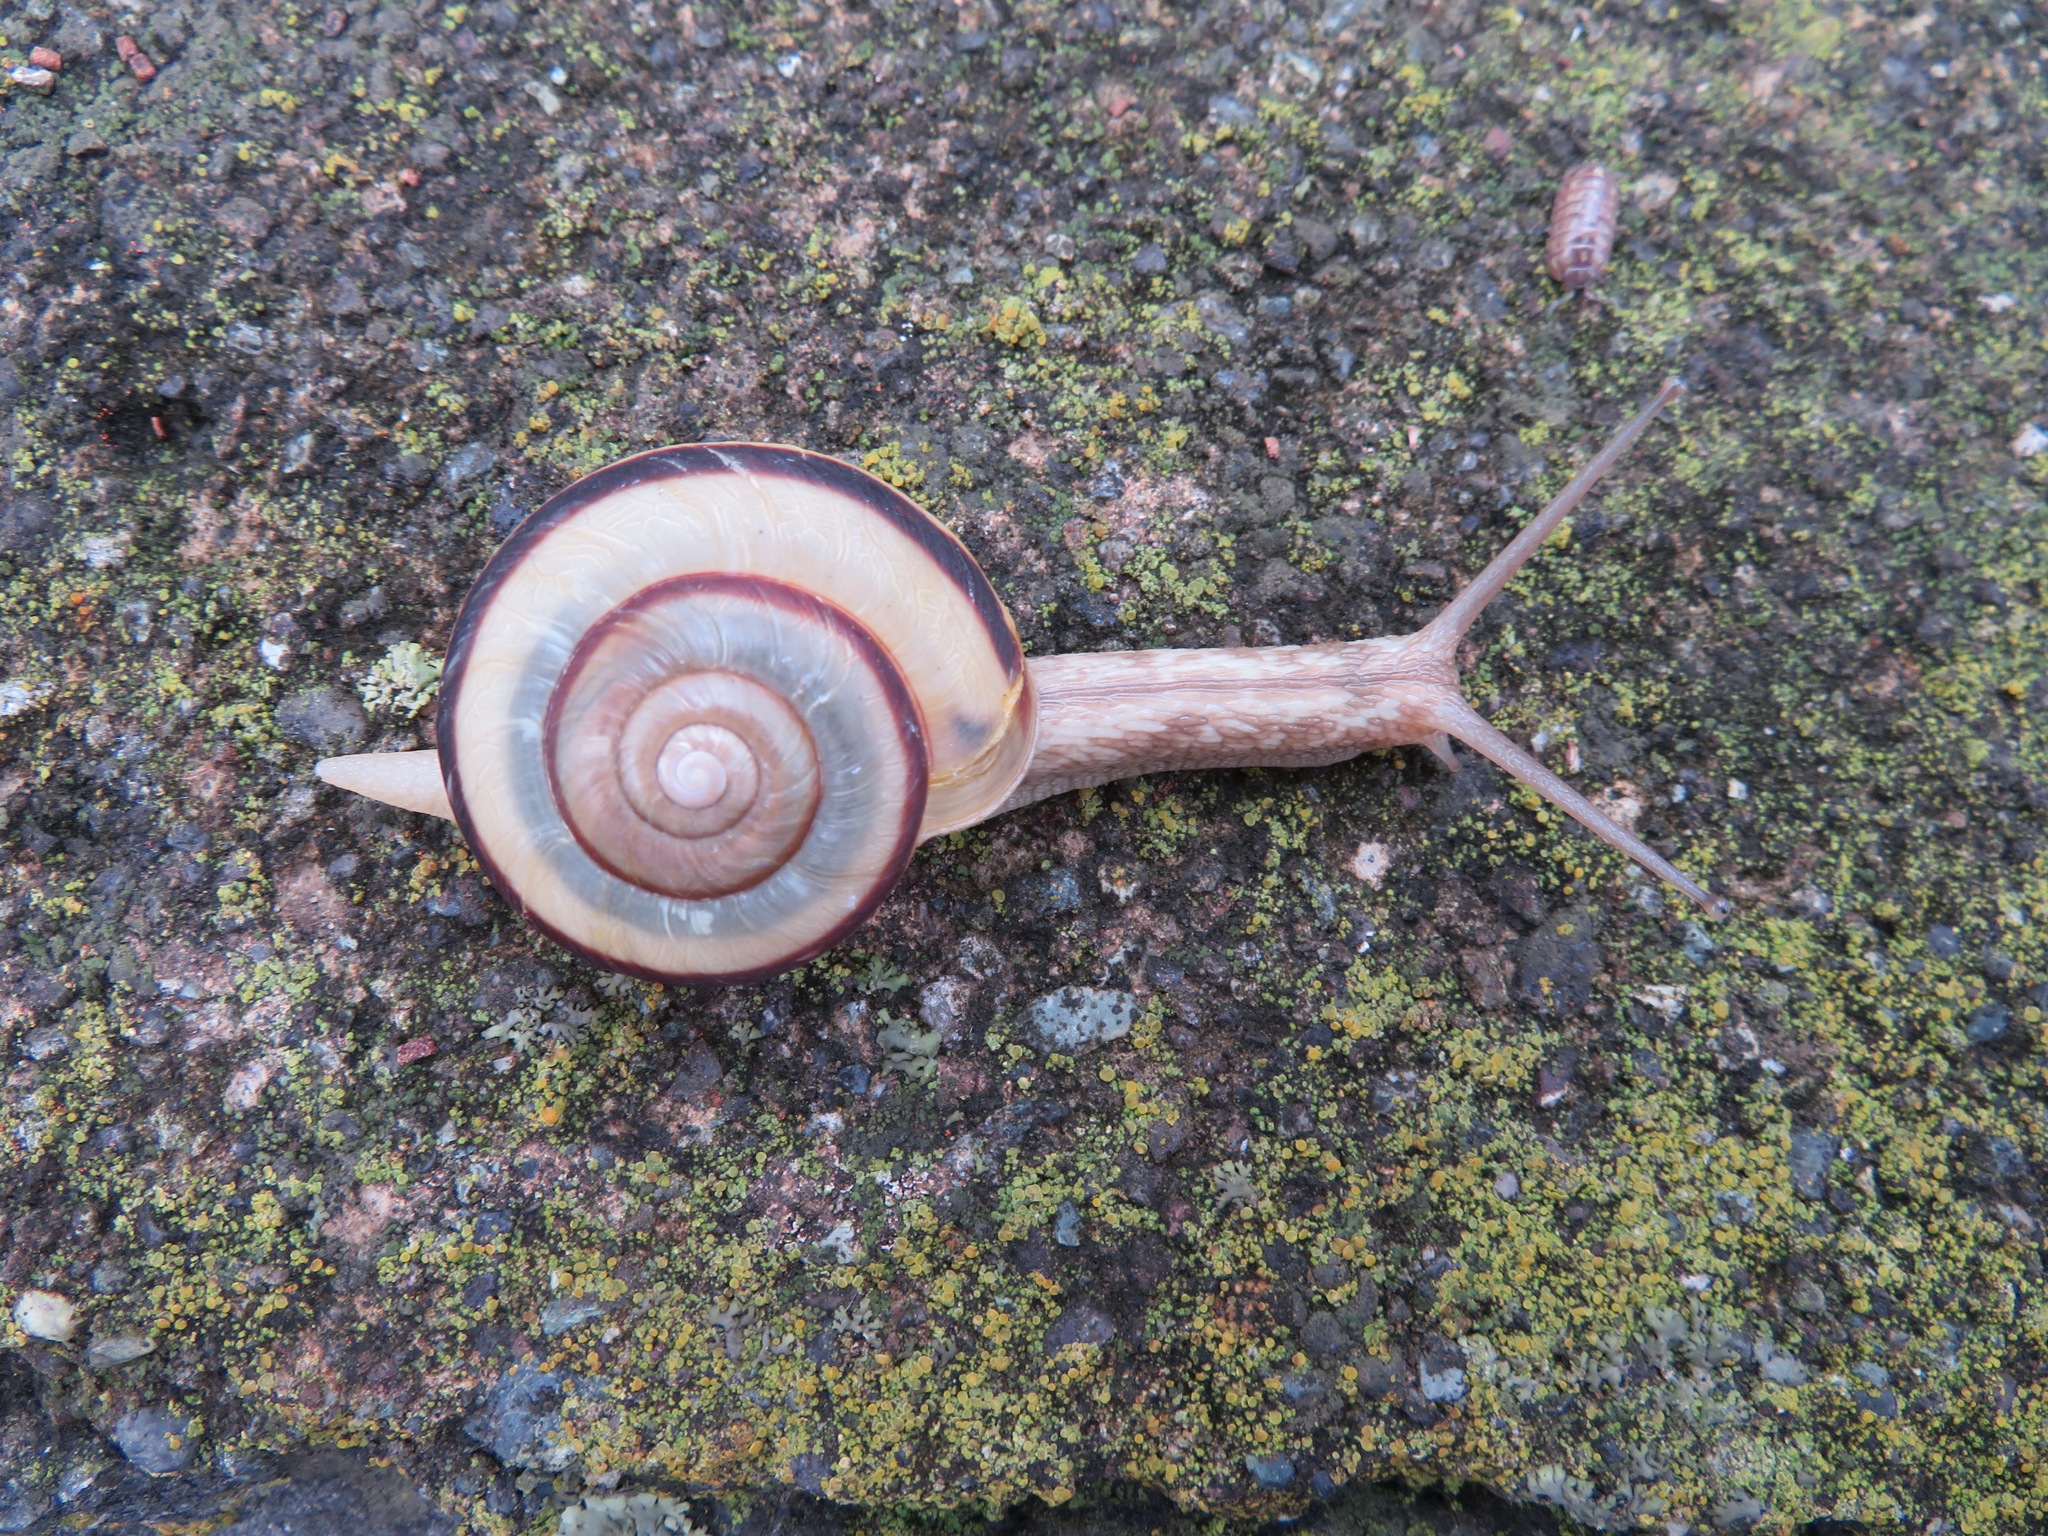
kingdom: Animalia
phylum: Mollusca
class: Gastropoda
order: Stylommatophora
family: Camaenidae
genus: Euhadra
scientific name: Euhadra peliomphala
